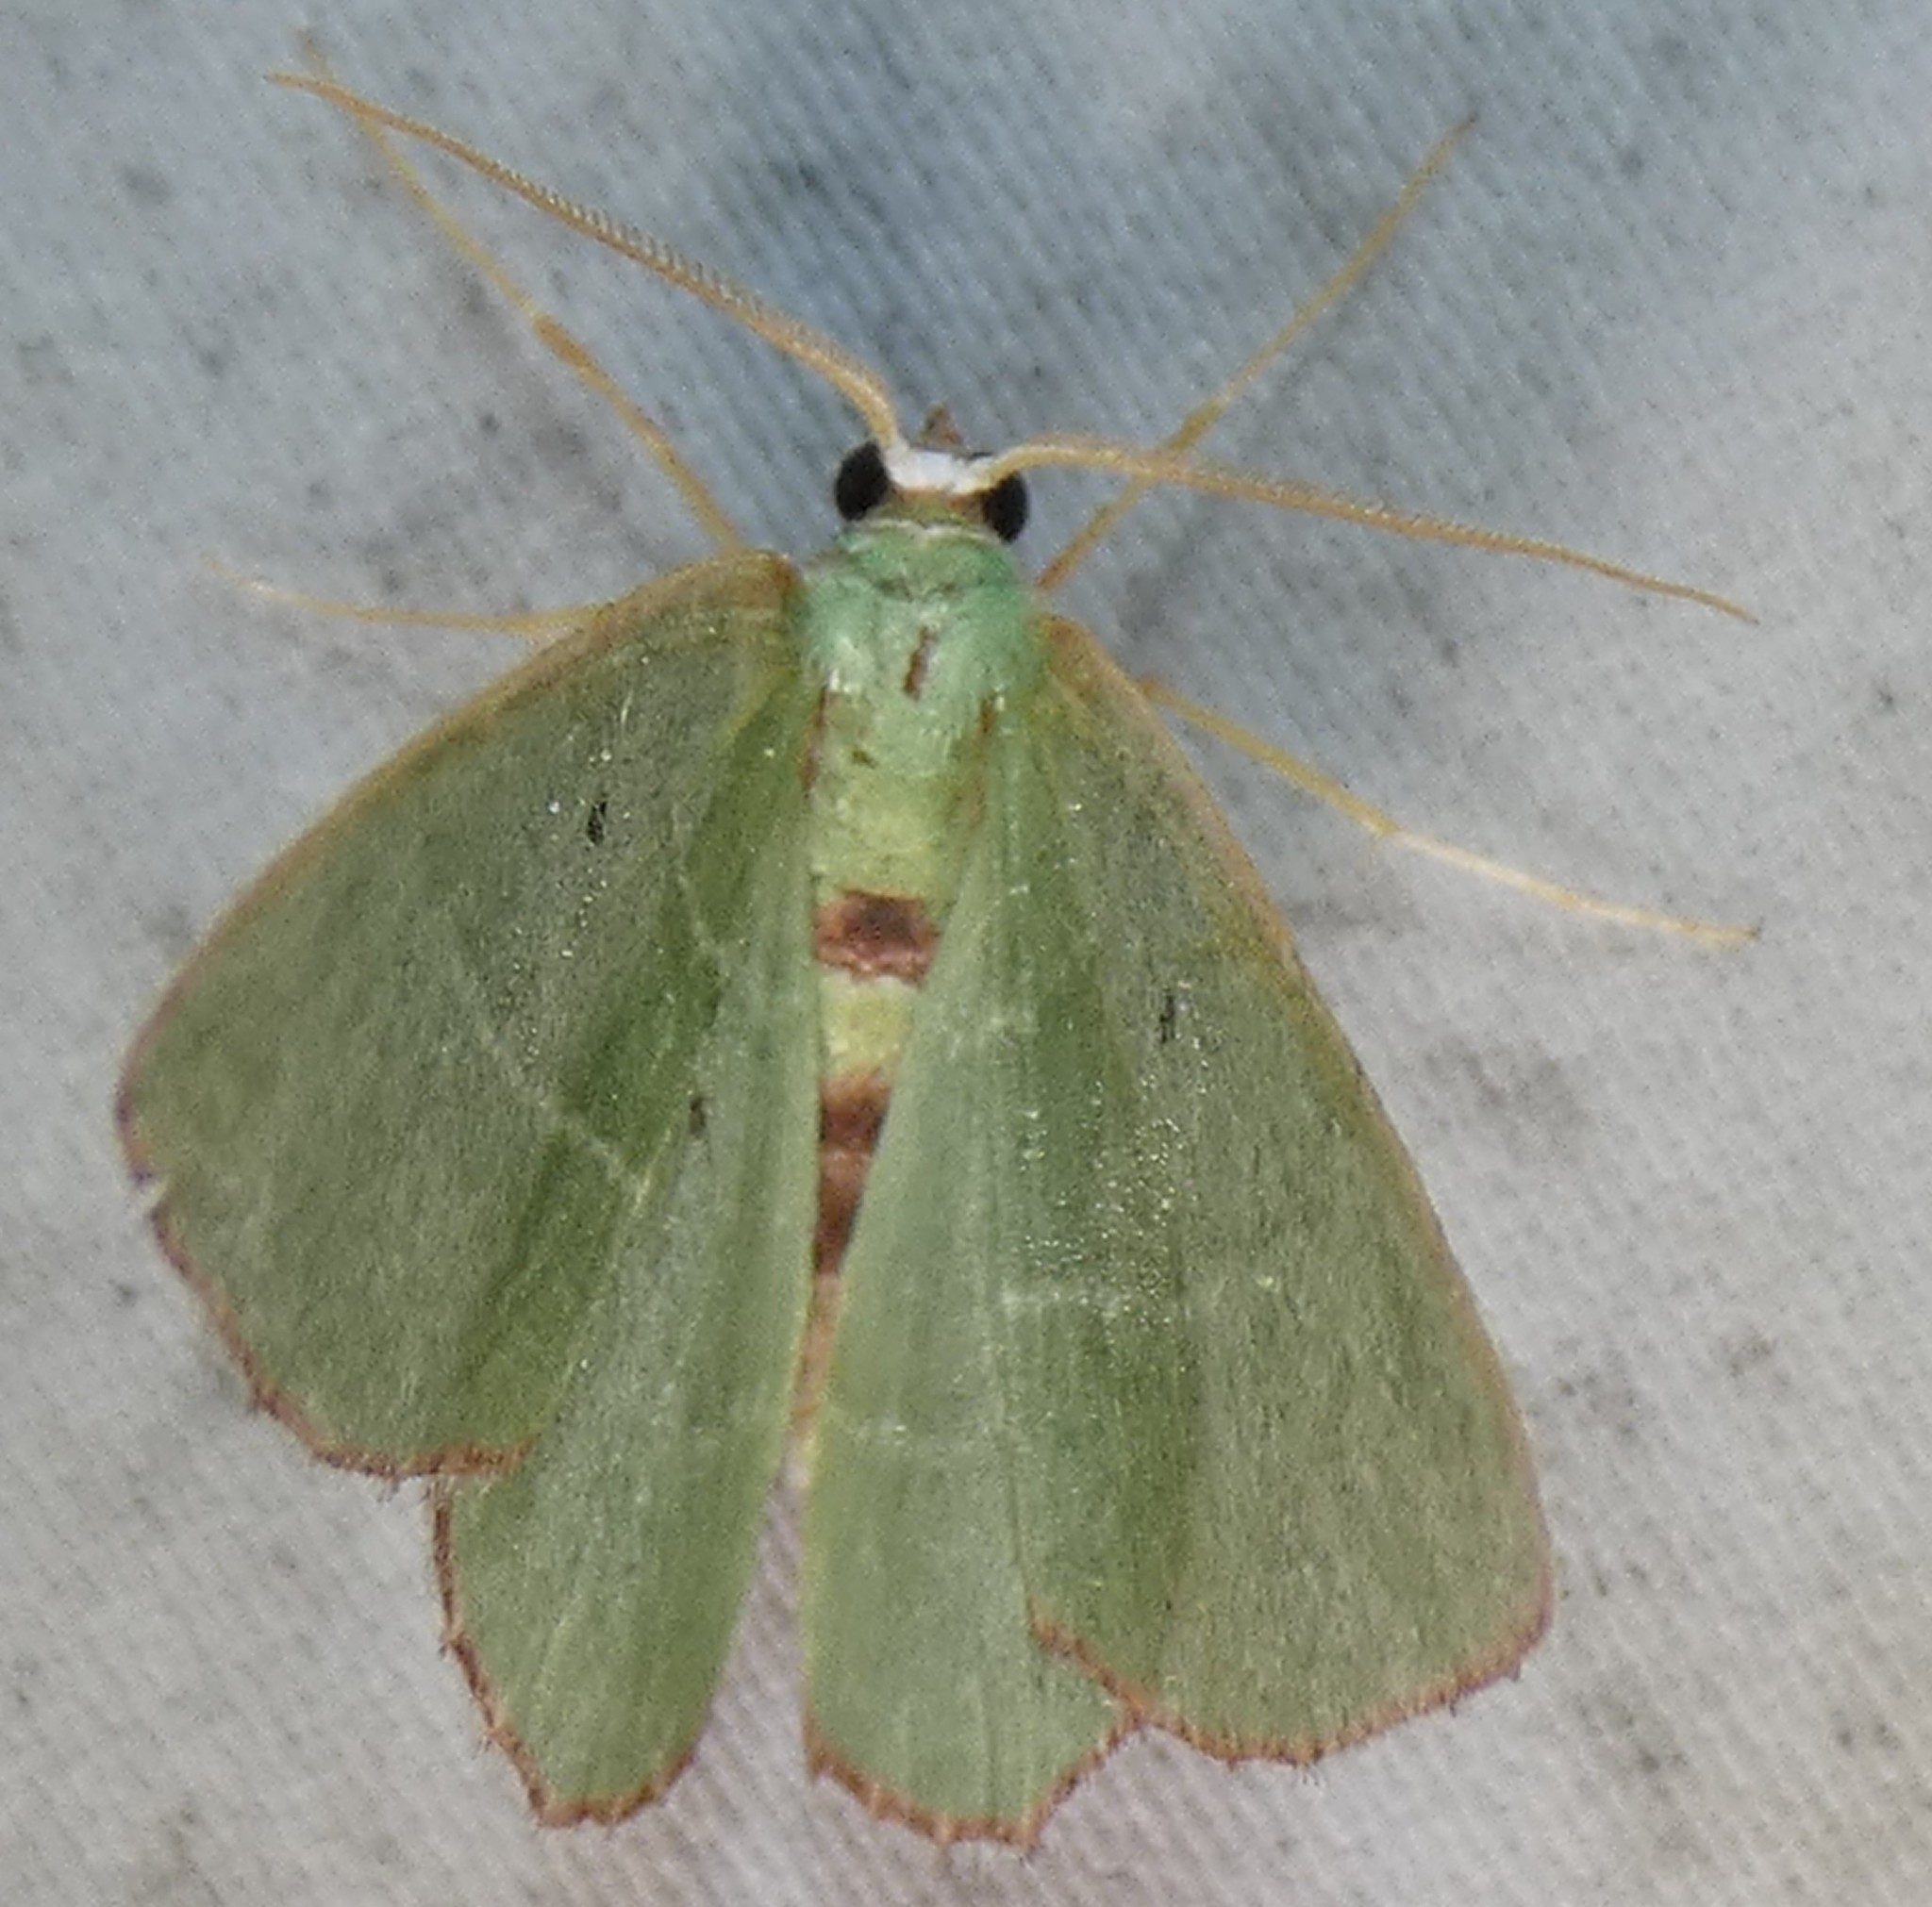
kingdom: Animalia
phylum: Arthropoda
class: Insecta
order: Lepidoptera
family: Geometridae
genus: Nemoria
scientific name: Nemoria saturiba
